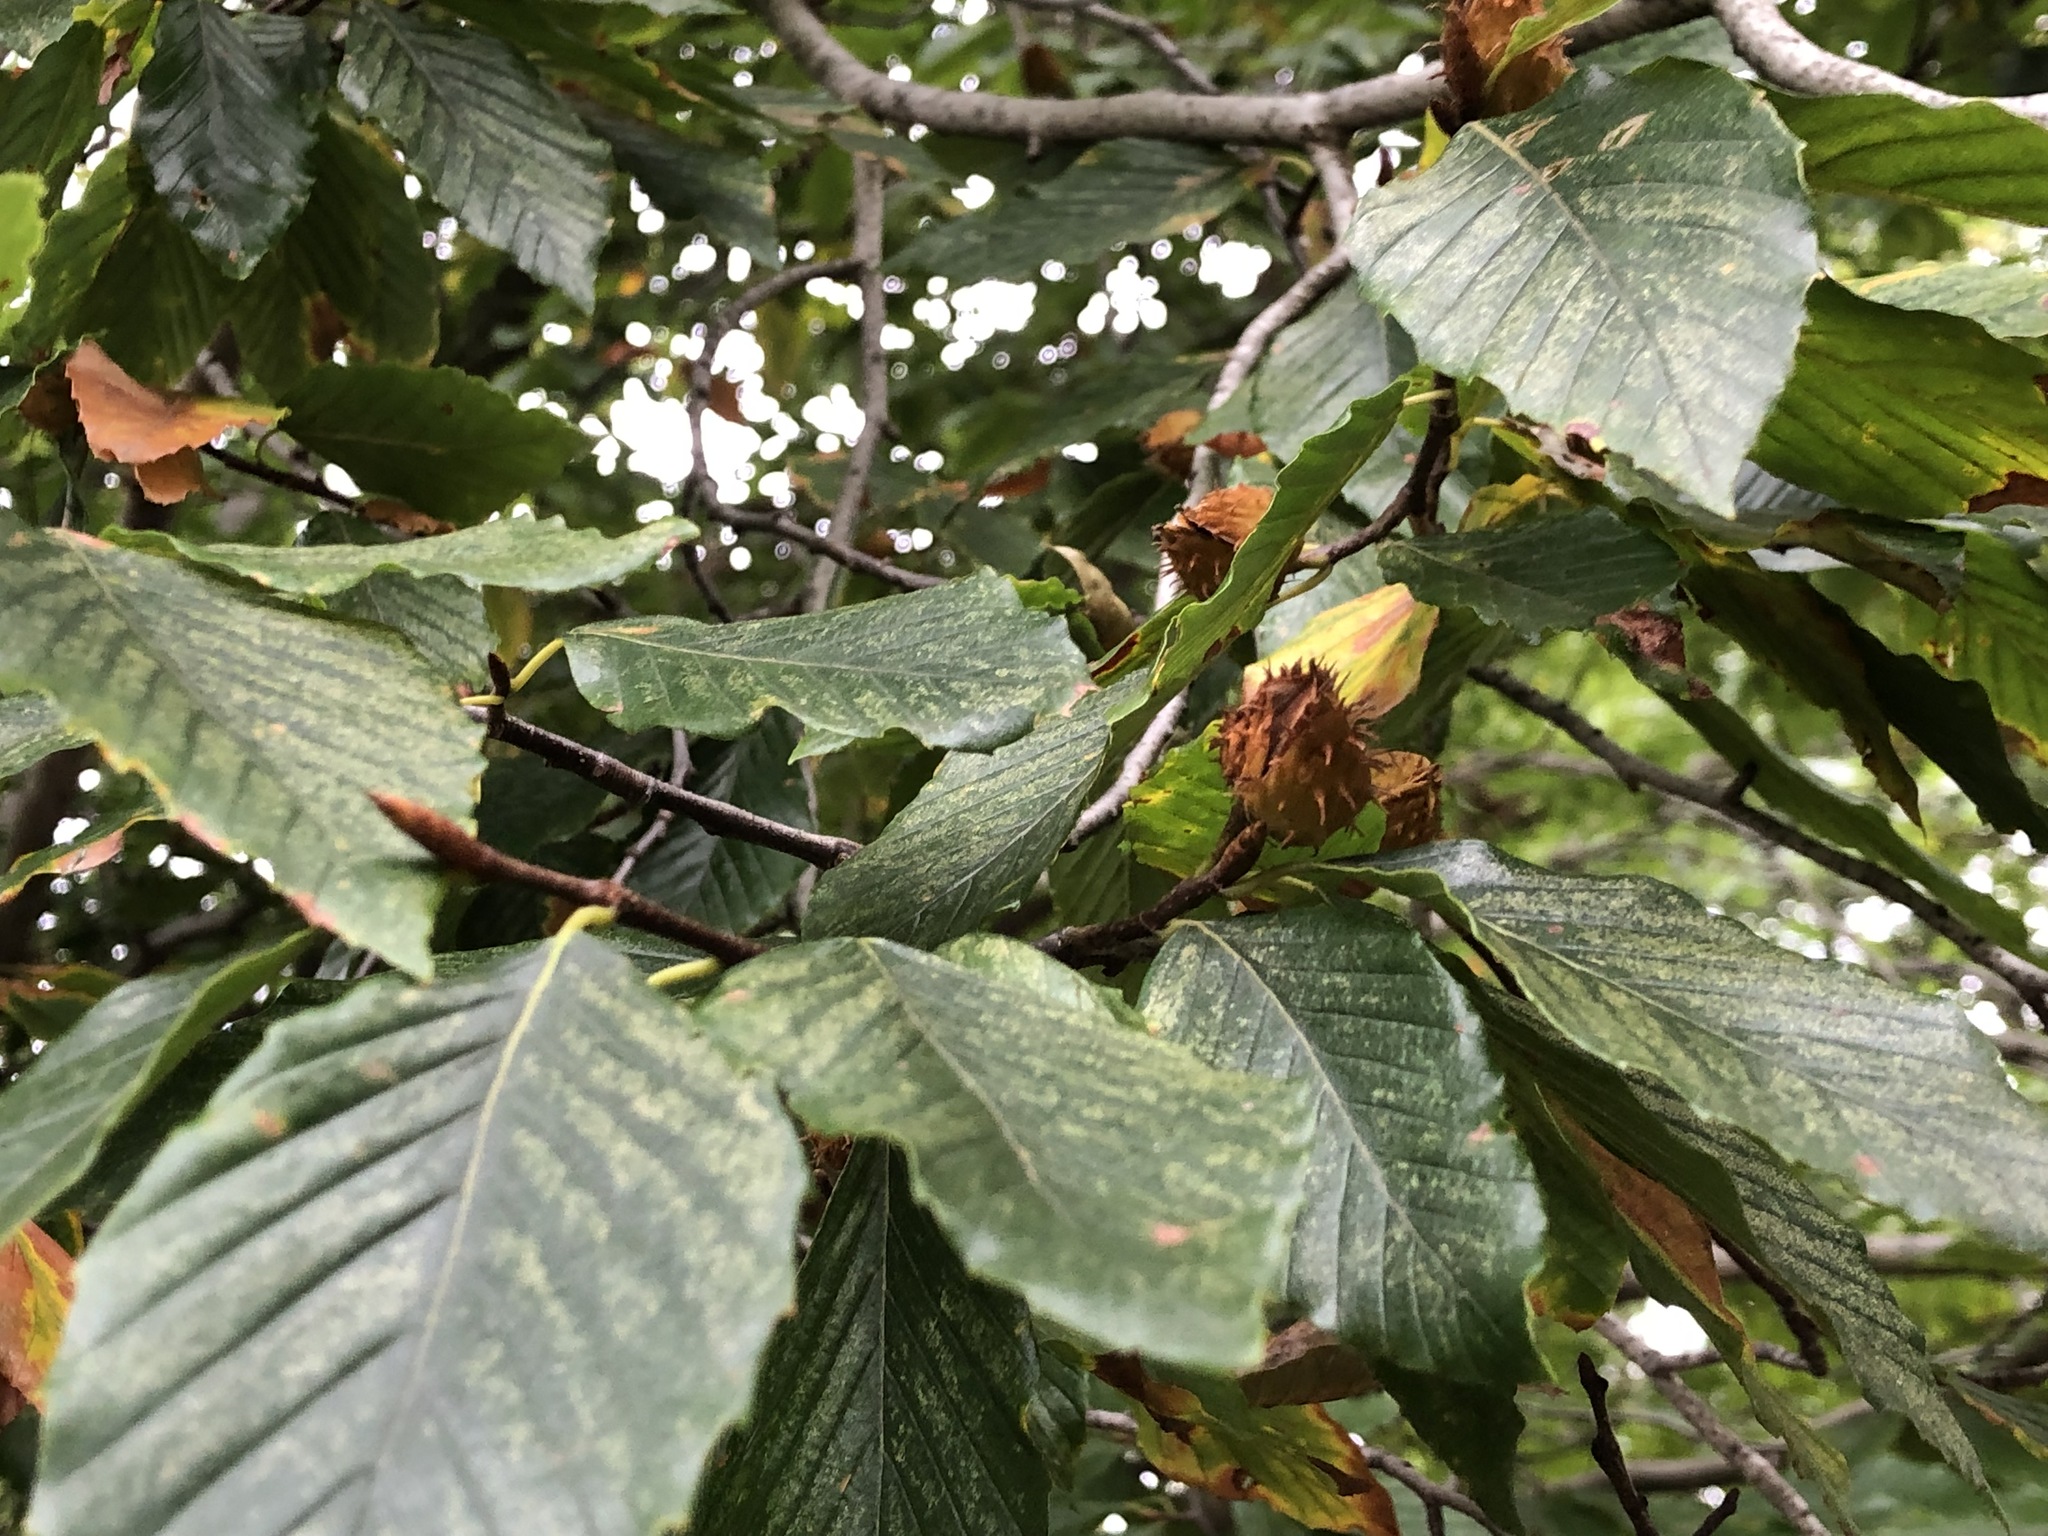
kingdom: Plantae
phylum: Tracheophyta
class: Magnoliopsida
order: Fagales
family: Fagaceae
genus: Fagus
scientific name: Fagus grandifolia
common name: American beech
